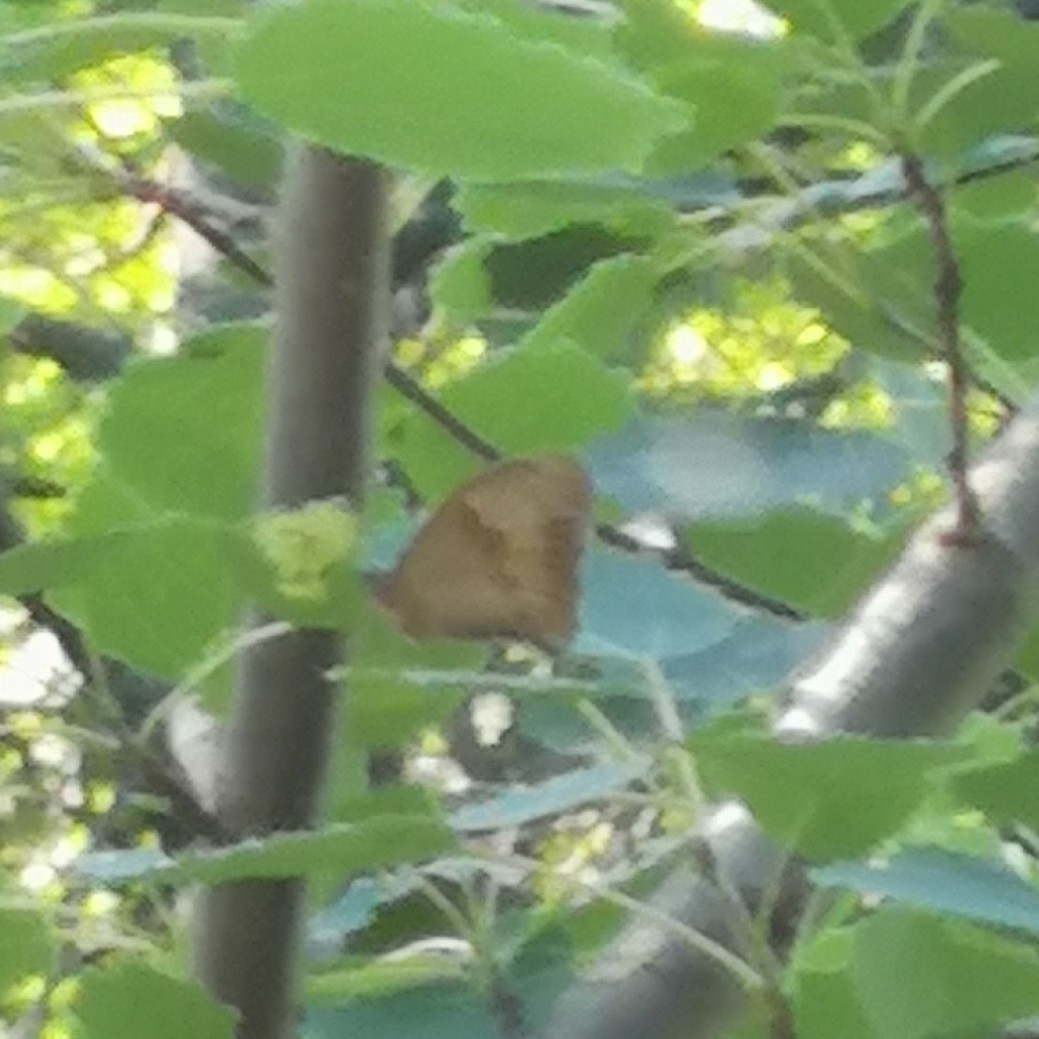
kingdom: Animalia
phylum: Arthropoda
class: Insecta
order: Lepidoptera
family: Nymphalidae
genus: Maniola
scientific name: Maniola jurtina
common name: Meadow brown
